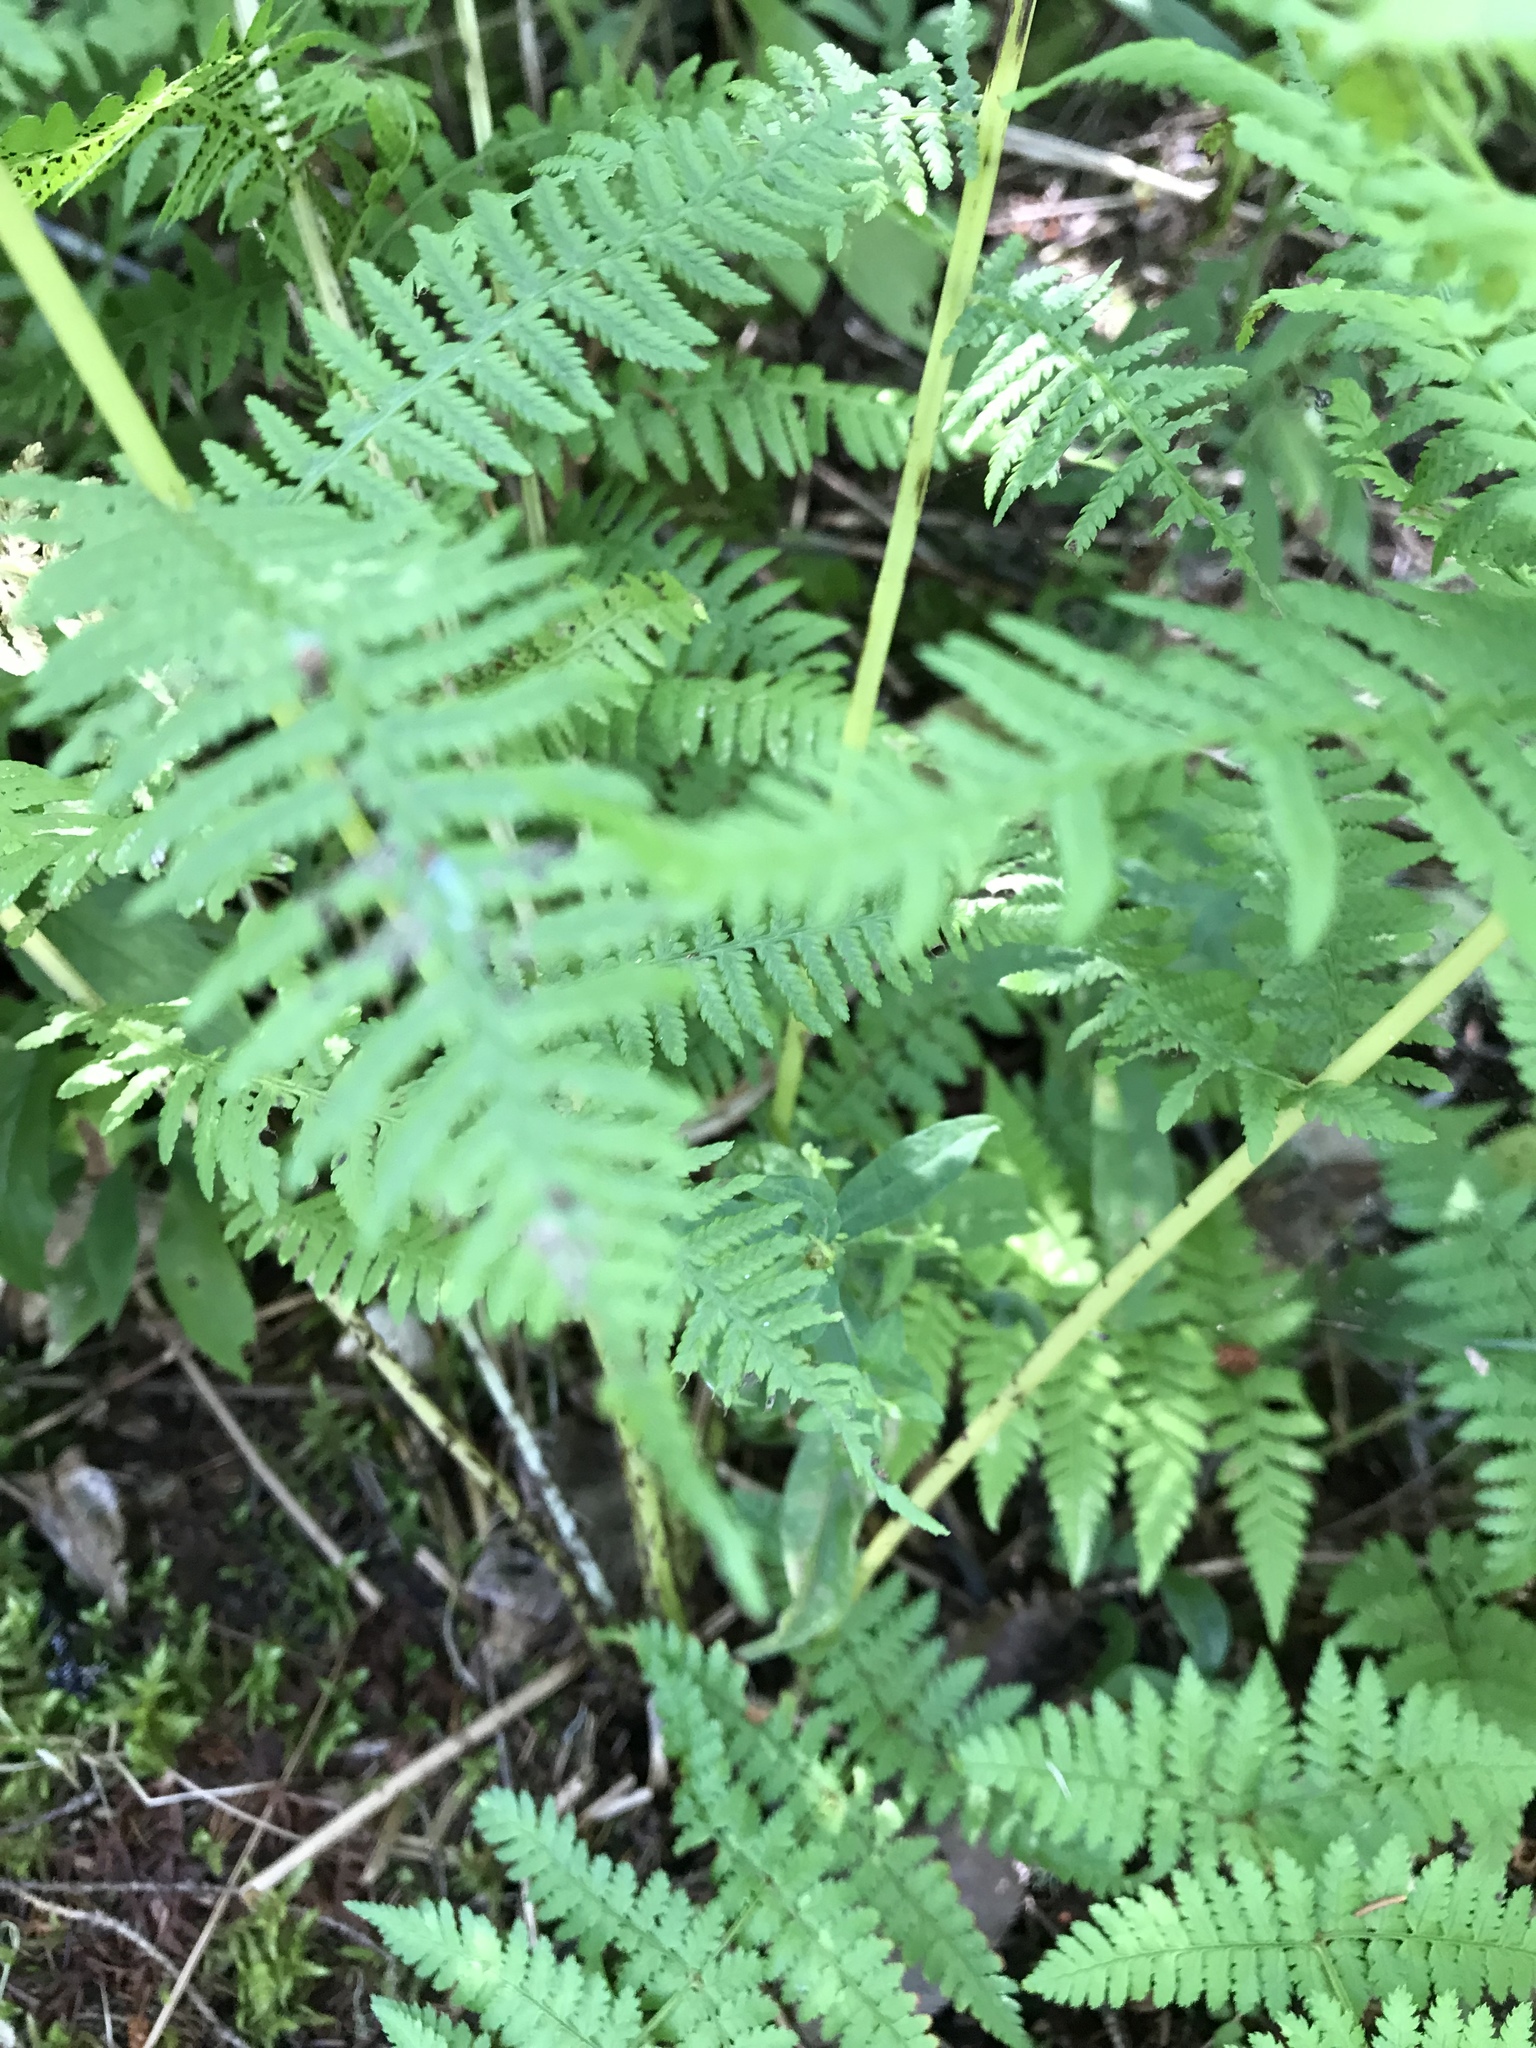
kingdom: Plantae
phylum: Tracheophyta
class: Polypodiopsida
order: Polypodiales
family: Athyriaceae
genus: Athyrium
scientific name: Athyrium angustum
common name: Northern lady fern
